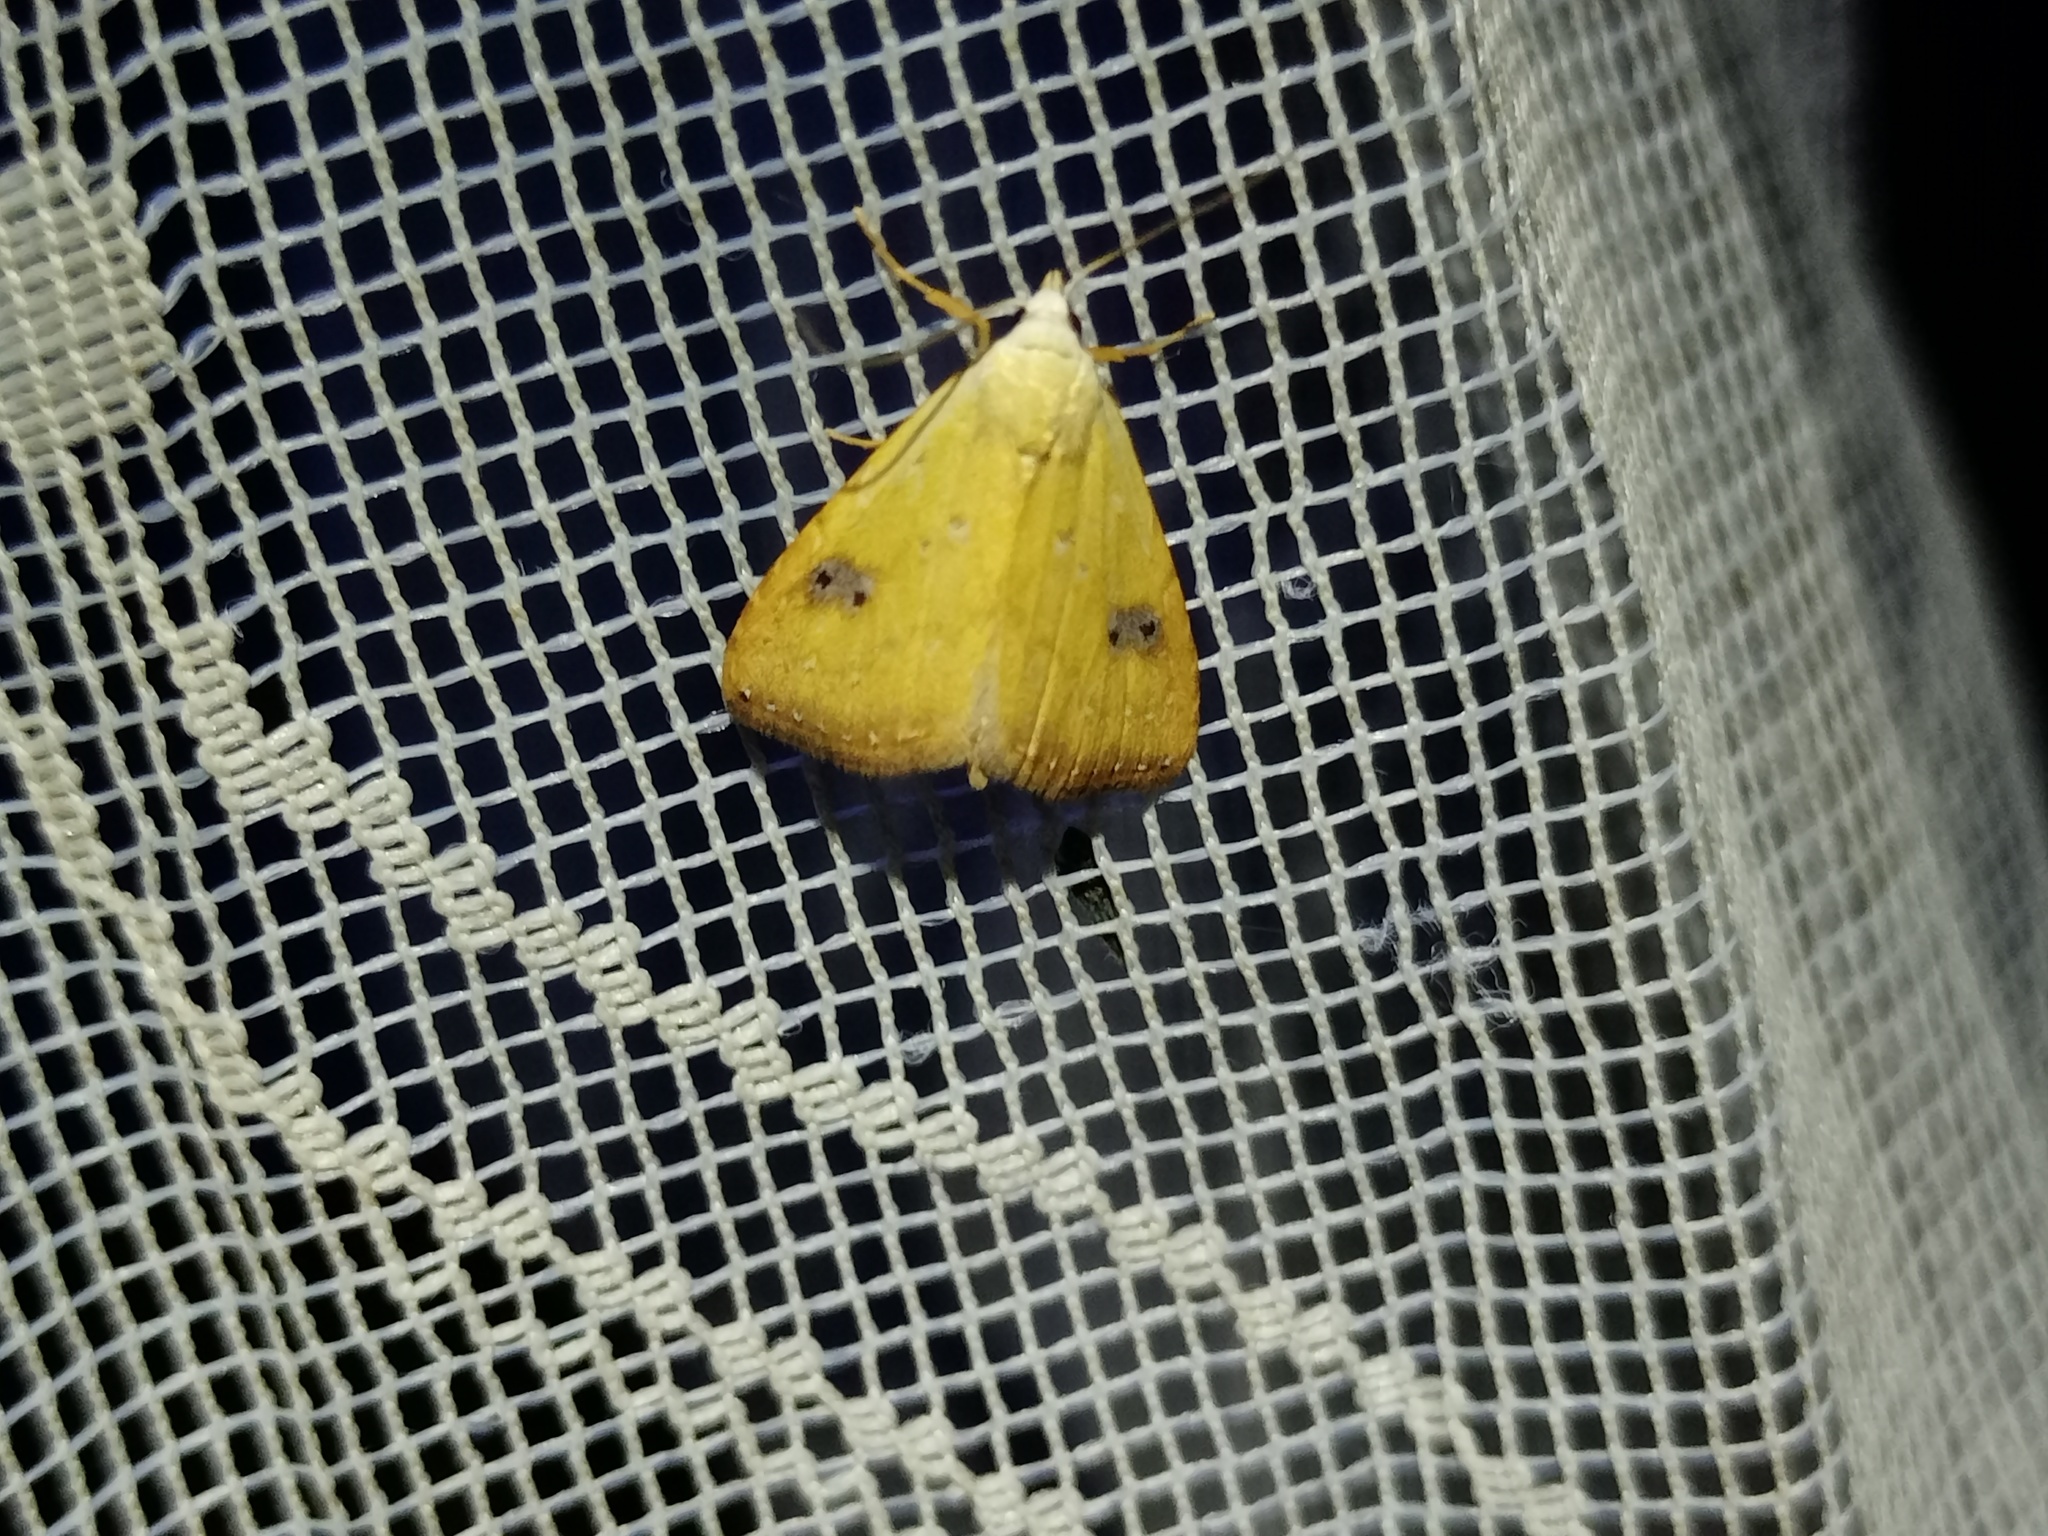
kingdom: Animalia
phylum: Arthropoda
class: Insecta
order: Lepidoptera
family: Erebidae
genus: Rivula
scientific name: Rivula sericealis
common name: Straw dot
